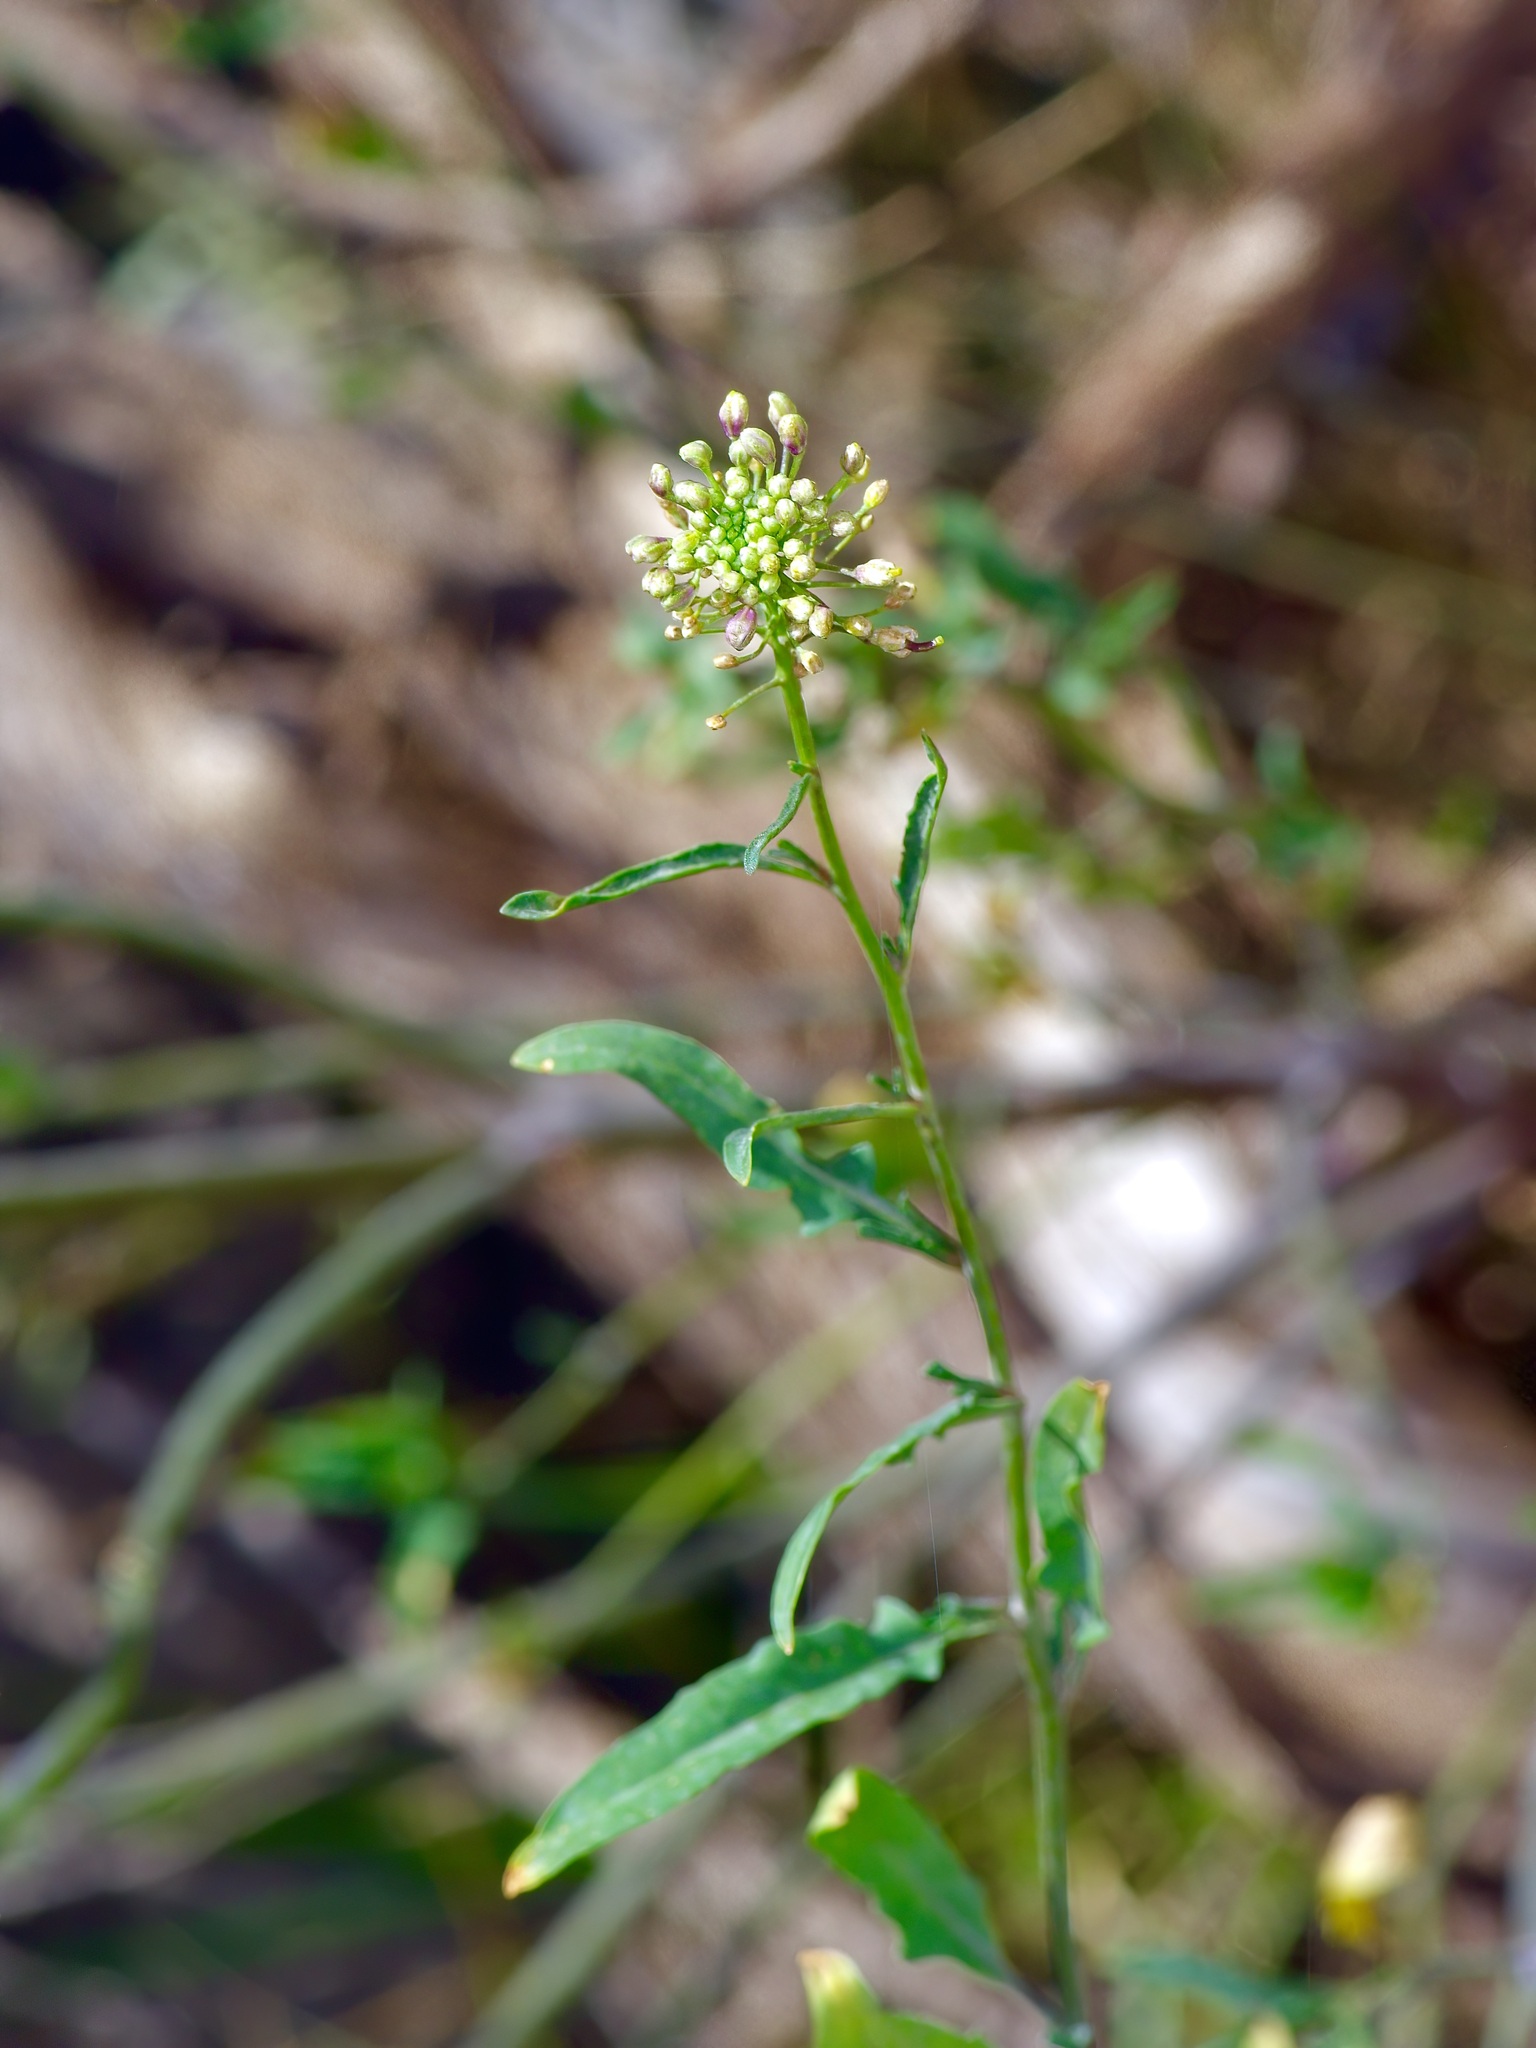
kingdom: Plantae
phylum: Tracheophyta
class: Magnoliopsida
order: Brassicales
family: Brassicaceae
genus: Thelypodium
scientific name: Thelypodium wrightii
